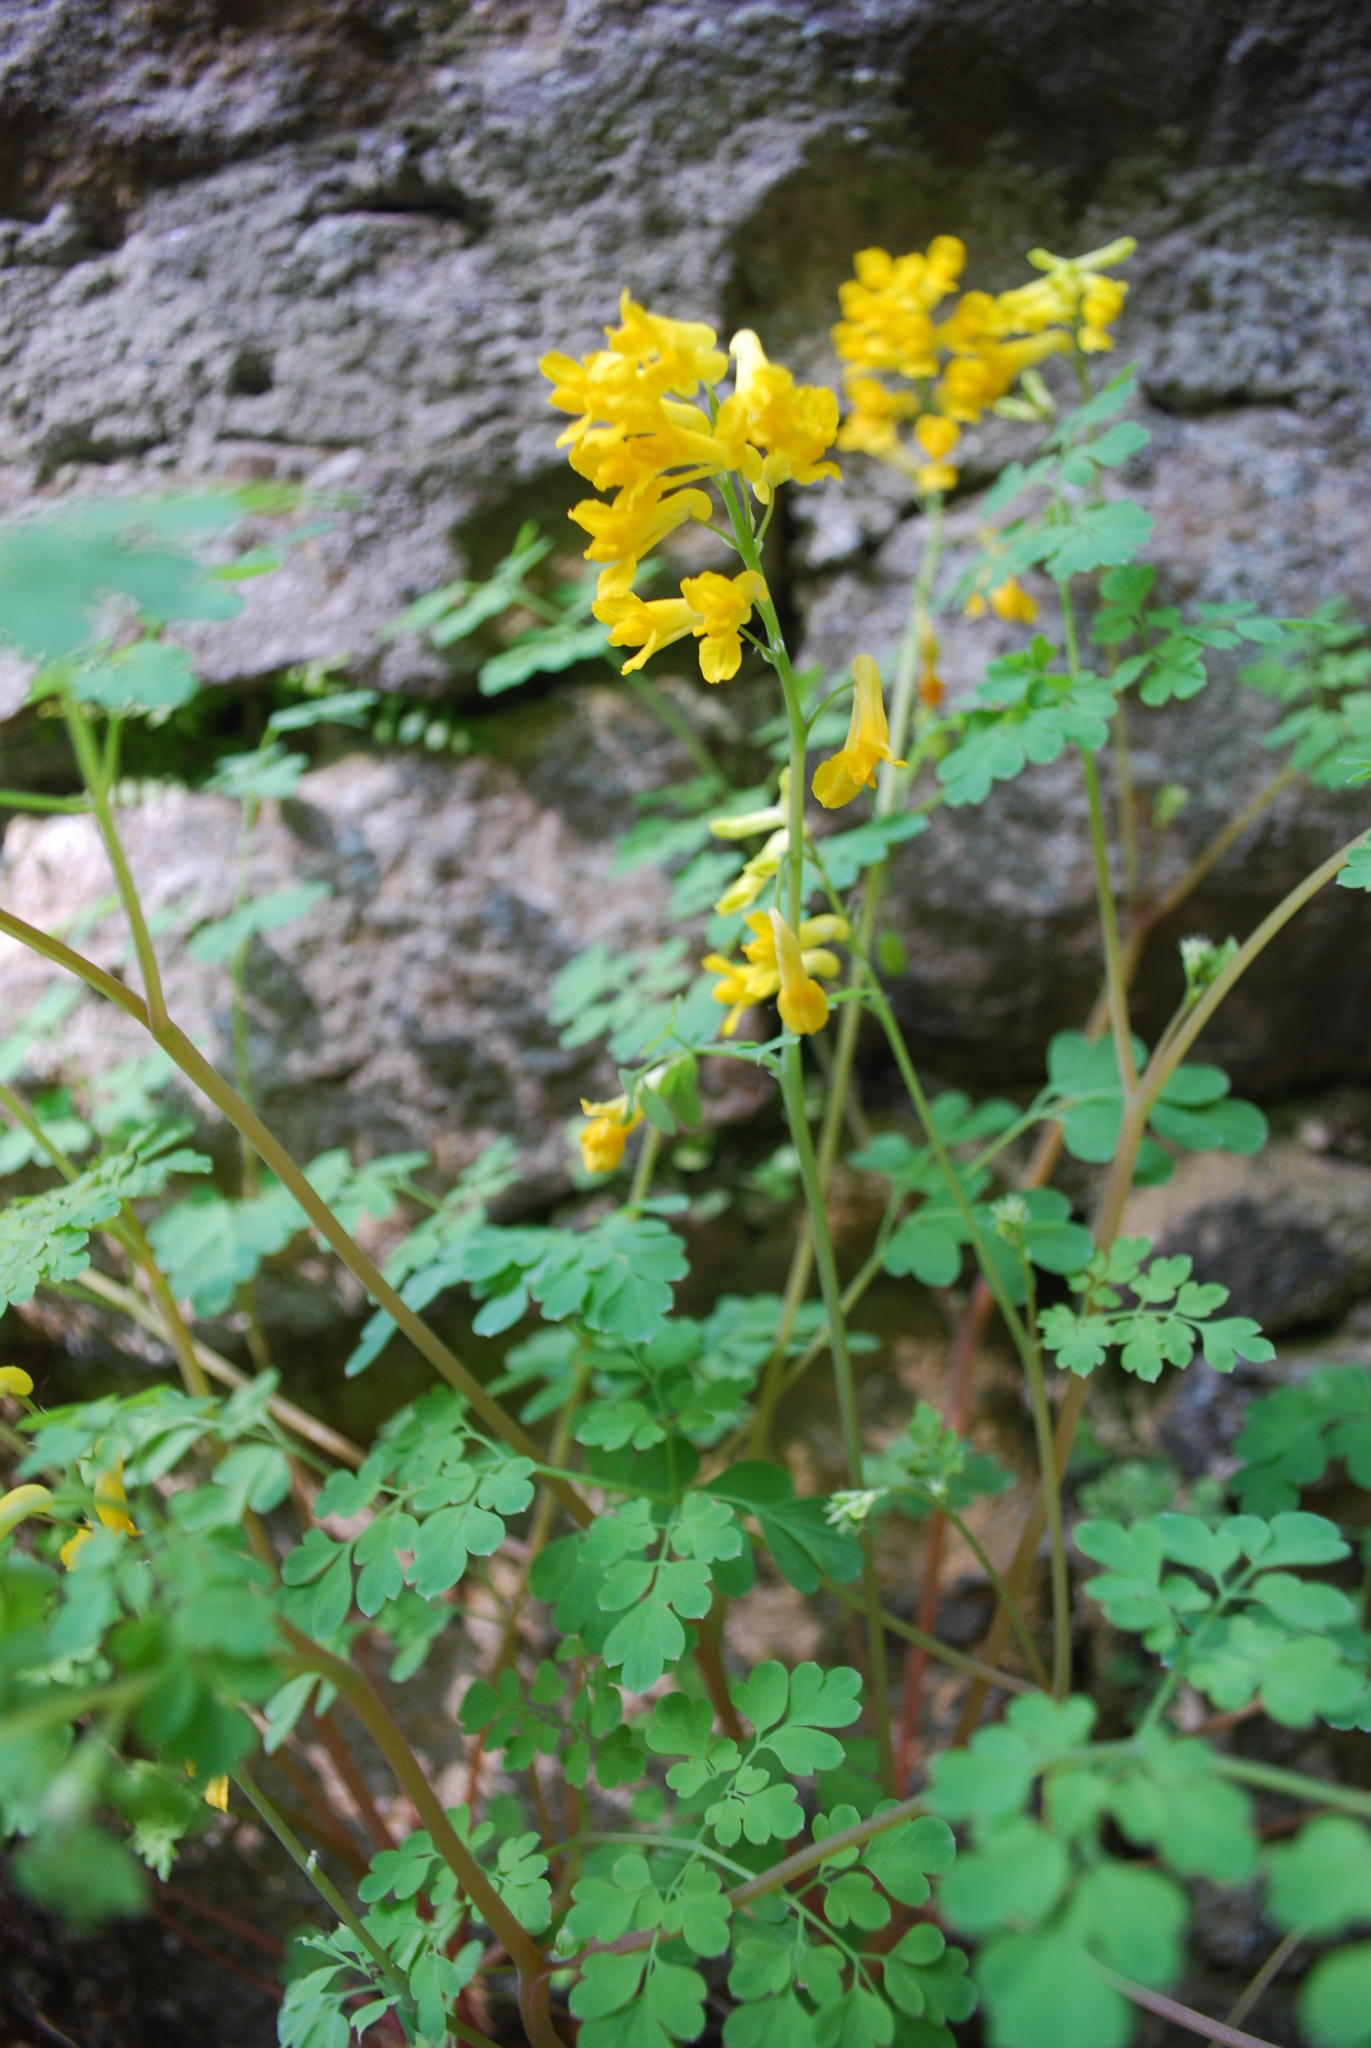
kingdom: Plantae
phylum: Tracheophyta
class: Magnoliopsida
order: Ranunculales
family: Papaveraceae
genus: Pseudofumaria
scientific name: Pseudofumaria lutea
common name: Yellow corydalis
